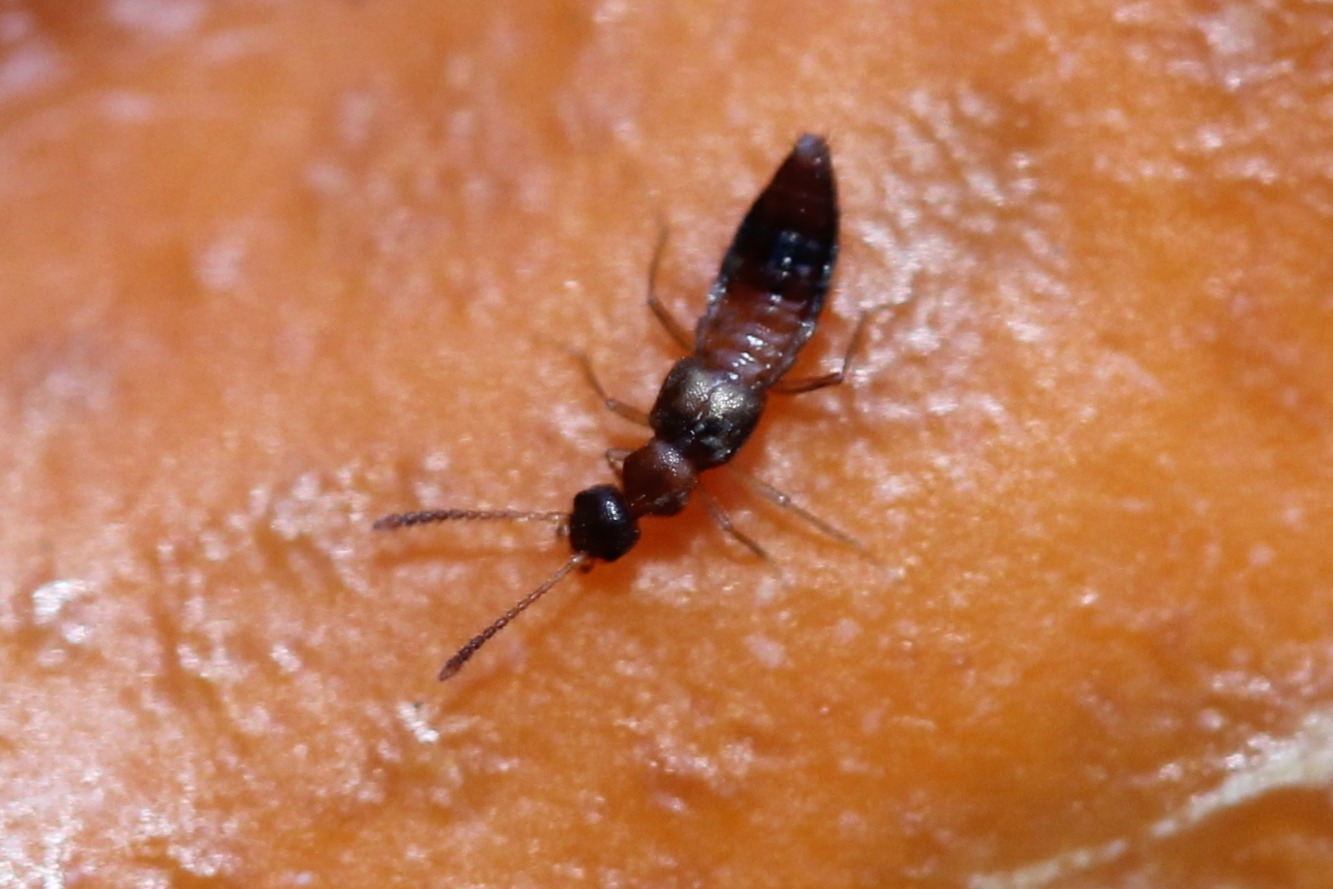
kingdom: Animalia
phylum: Arthropoda
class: Insecta
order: Coleoptera
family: Staphylinidae
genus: Meronera
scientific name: Meronera venustula
